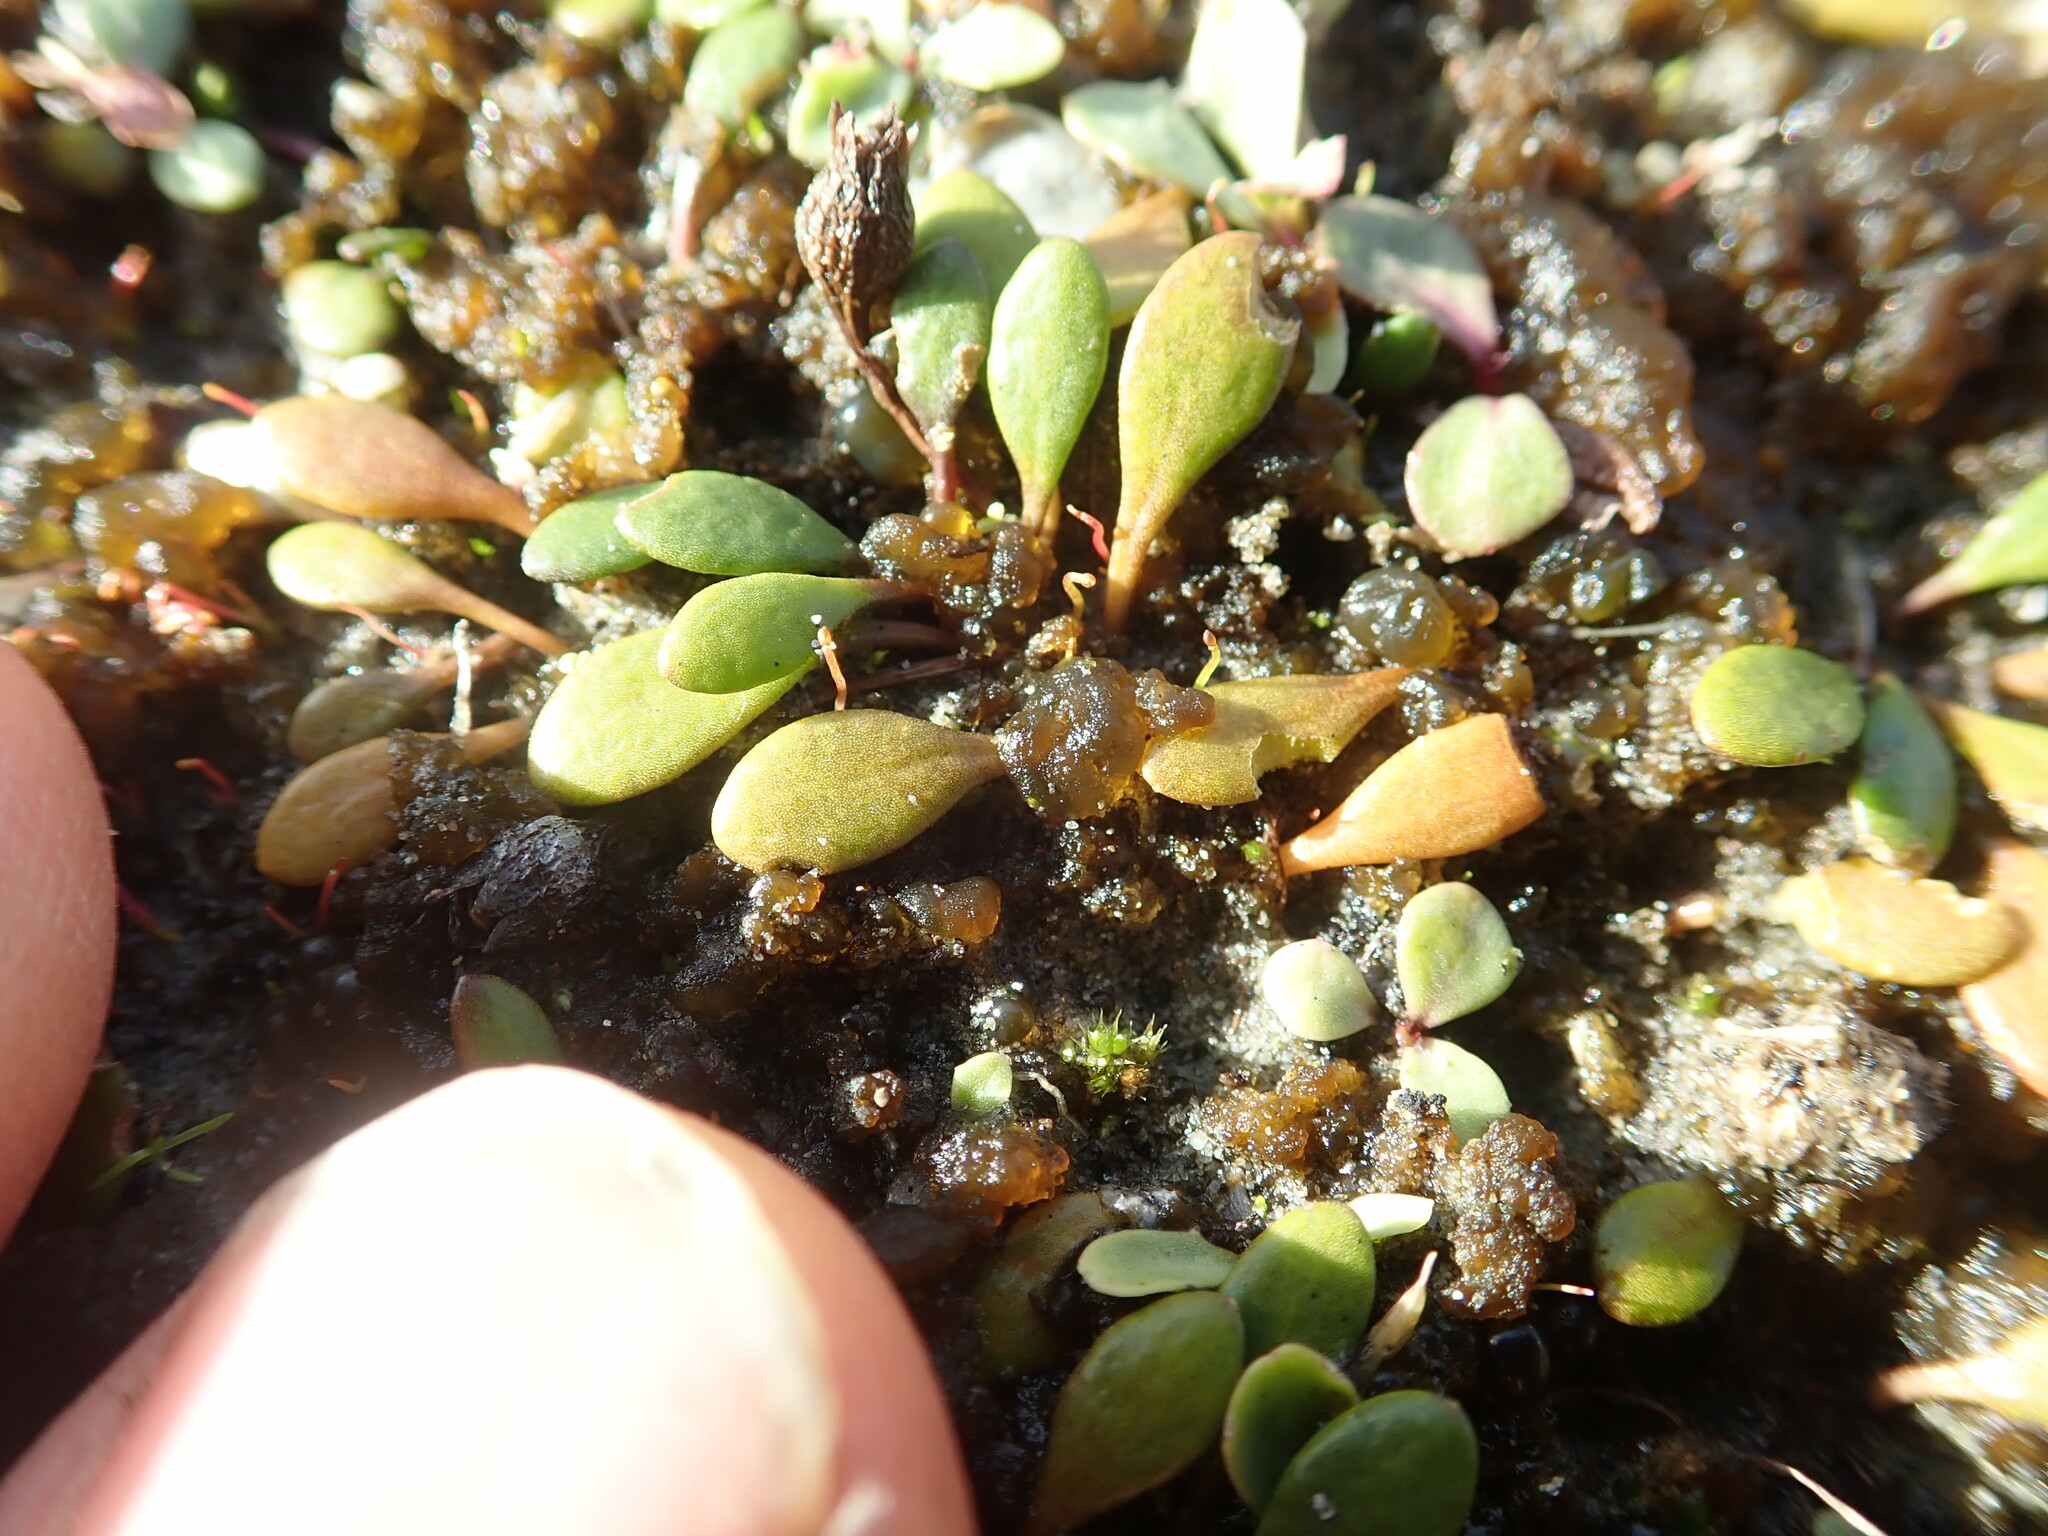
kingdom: Plantae
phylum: Tracheophyta
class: Magnoliopsida
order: Asterales
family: Goodeniaceae
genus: Goodenia
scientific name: Goodenia radicans
